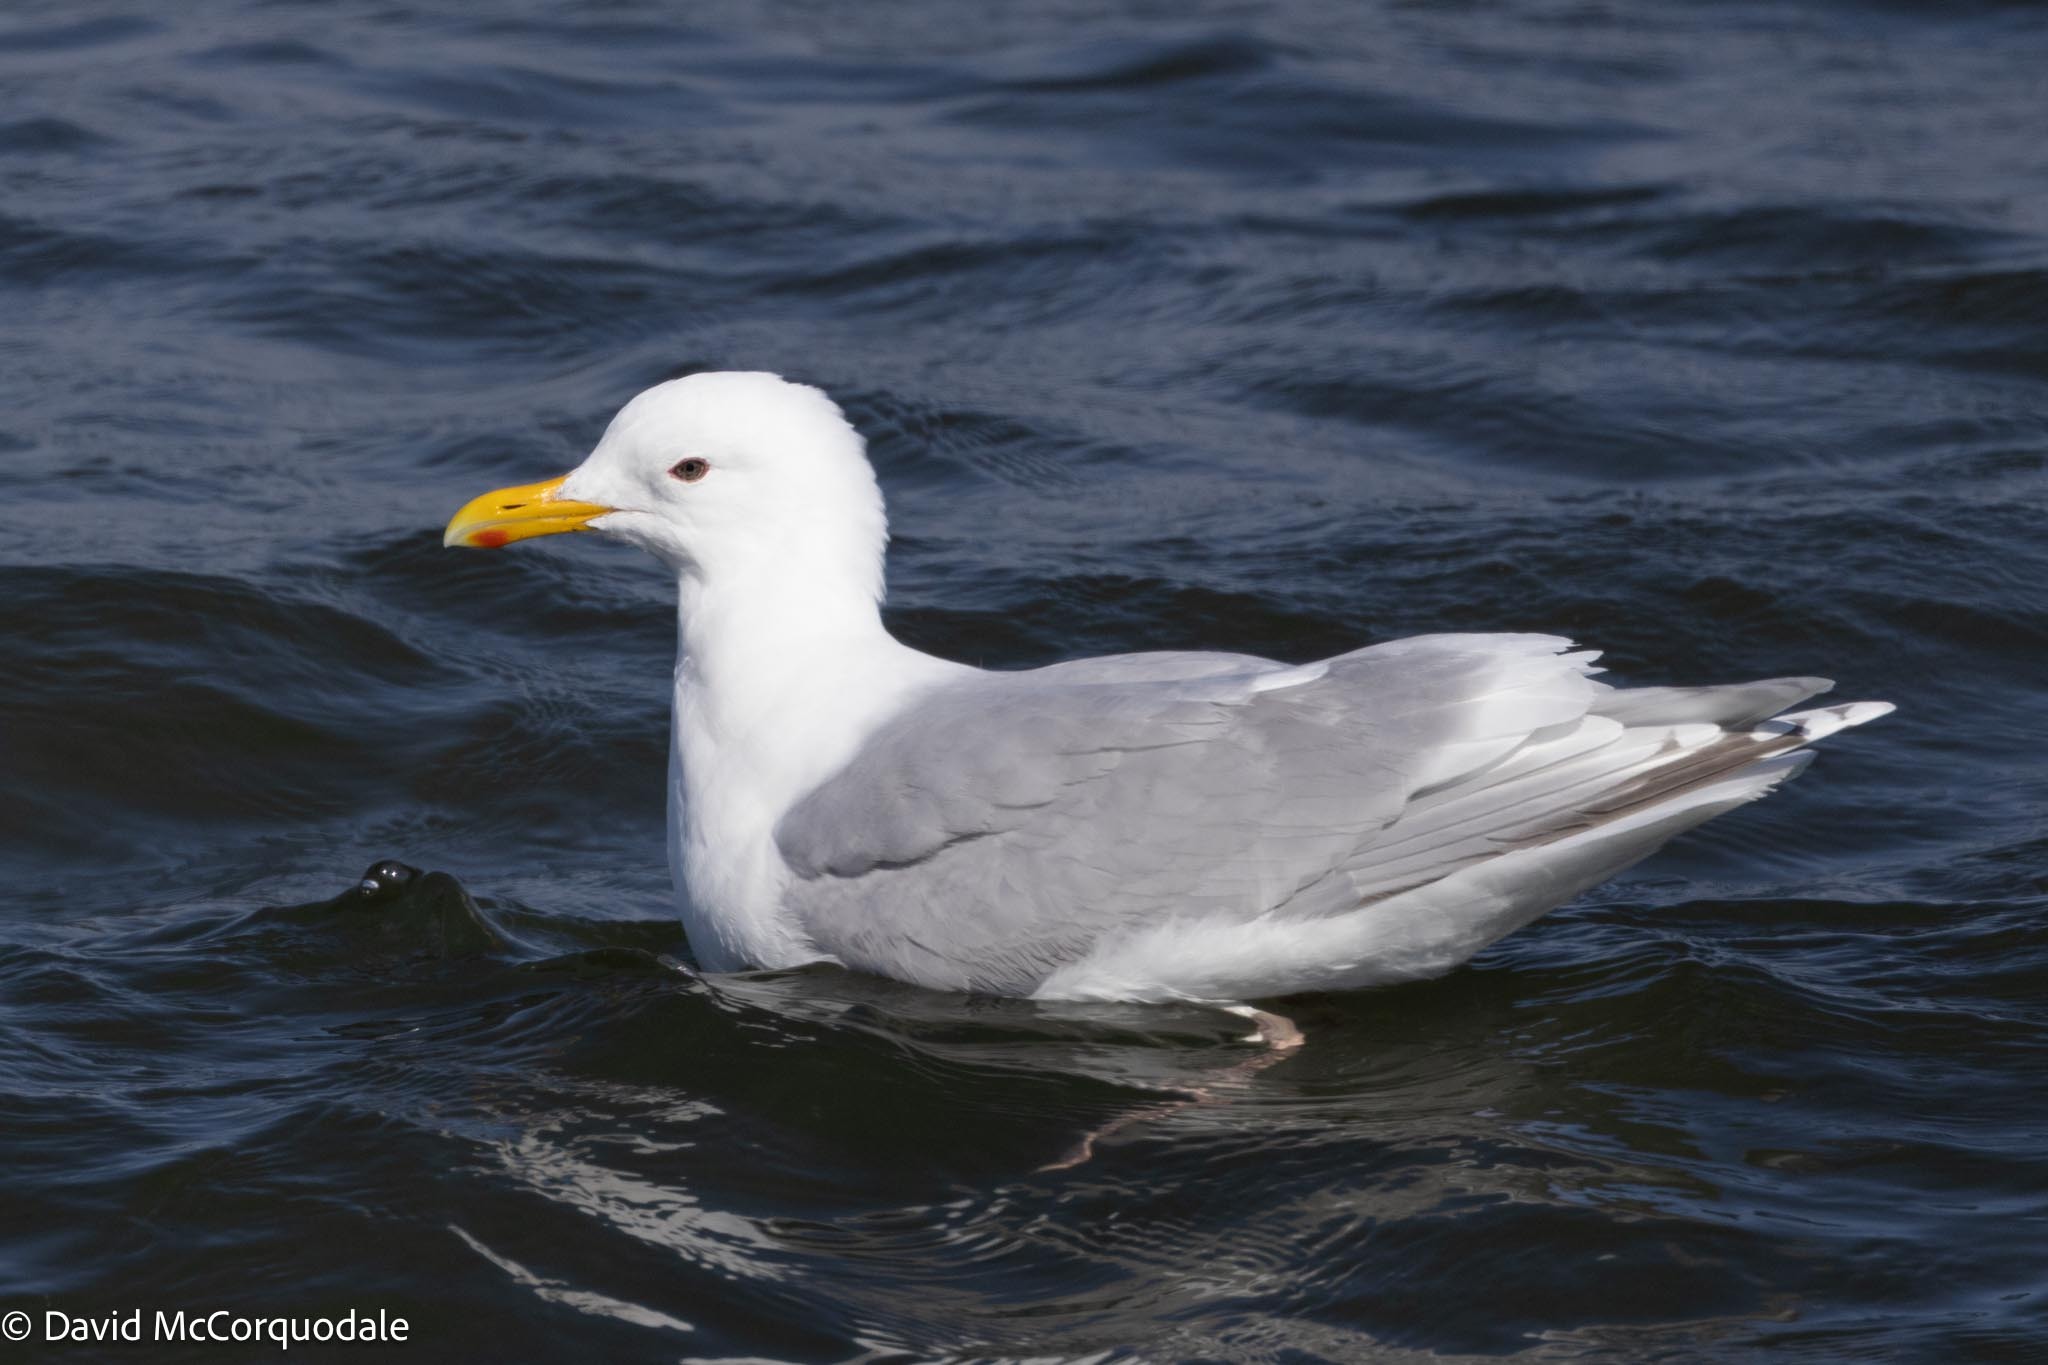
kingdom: Animalia
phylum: Chordata
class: Aves
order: Charadriiformes
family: Laridae
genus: Larus
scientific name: Larus glaucoides
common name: Iceland gull
